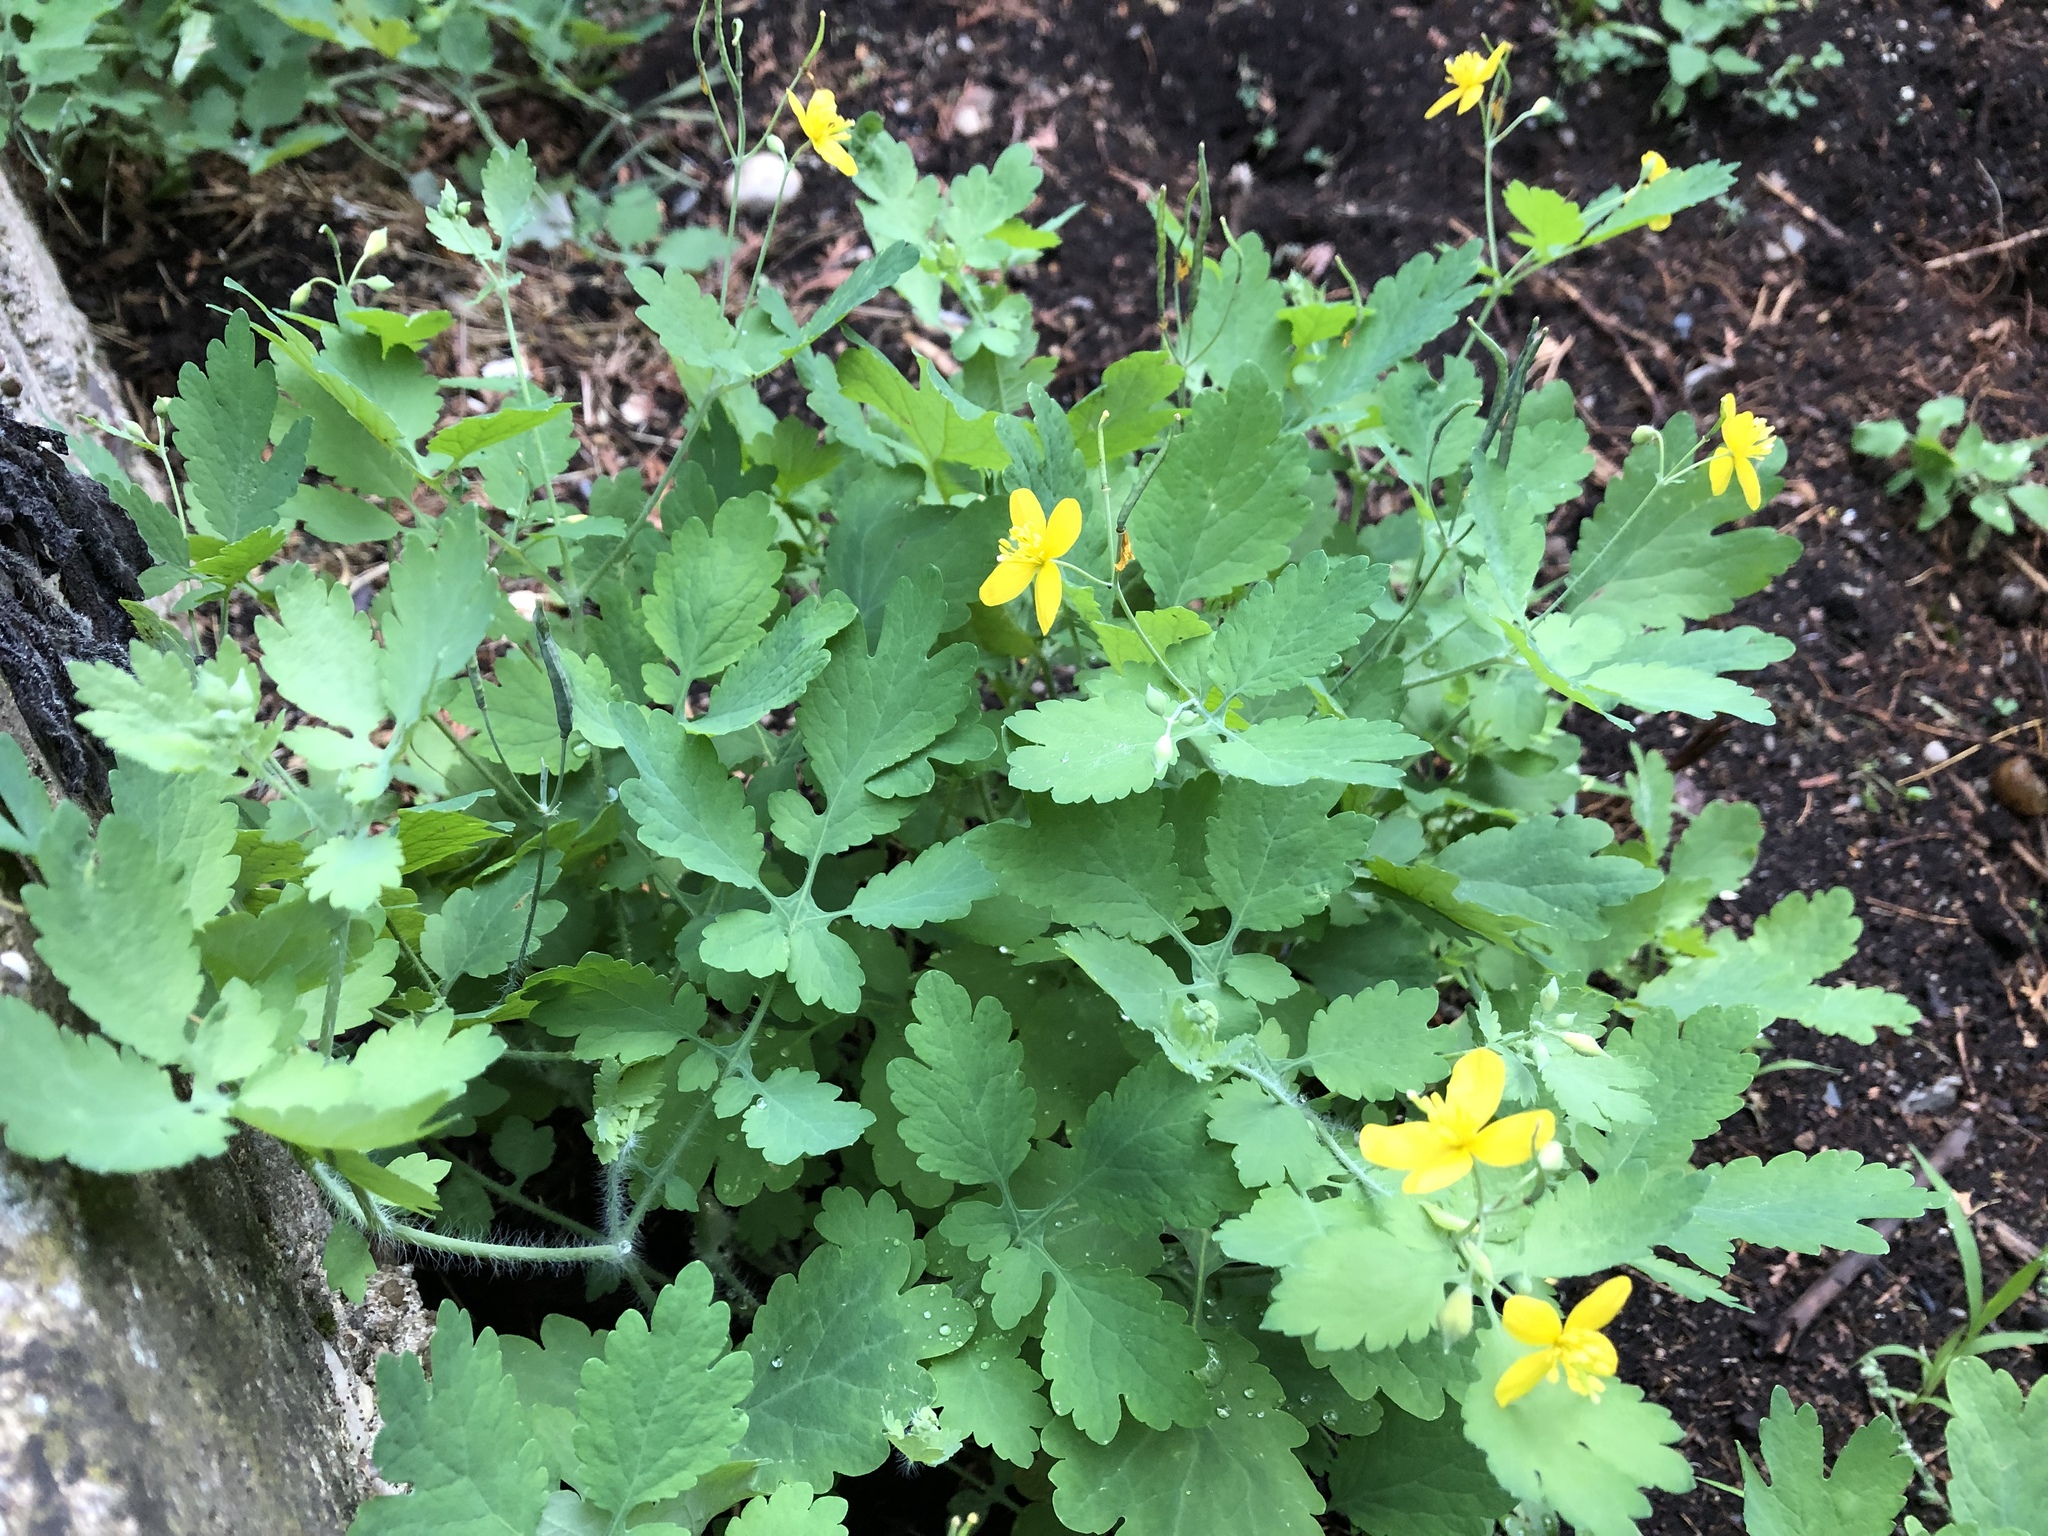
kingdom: Plantae
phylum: Tracheophyta
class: Magnoliopsida
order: Ranunculales
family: Papaveraceae
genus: Chelidonium
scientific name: Chelidonium majus
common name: Greater celandine
